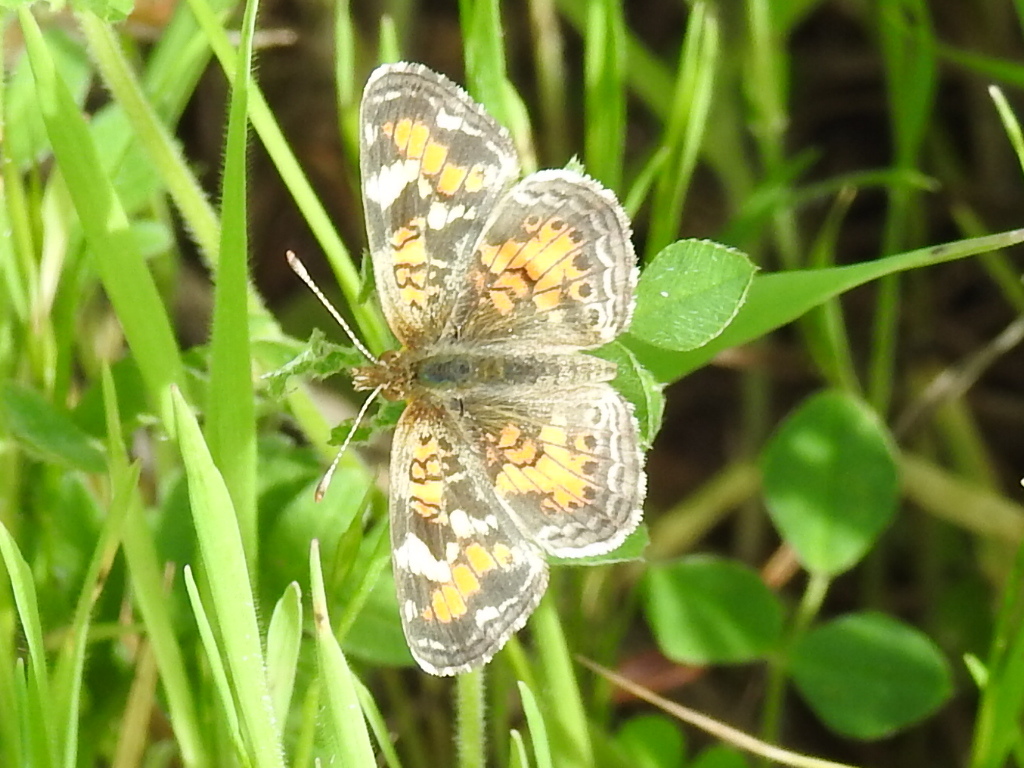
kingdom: Animalia
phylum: Arthropoda
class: Insecta
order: Lepidoptera
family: Nymphalidae
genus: Phyciodes
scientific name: Phyciodes phaon
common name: Phaon crescent
